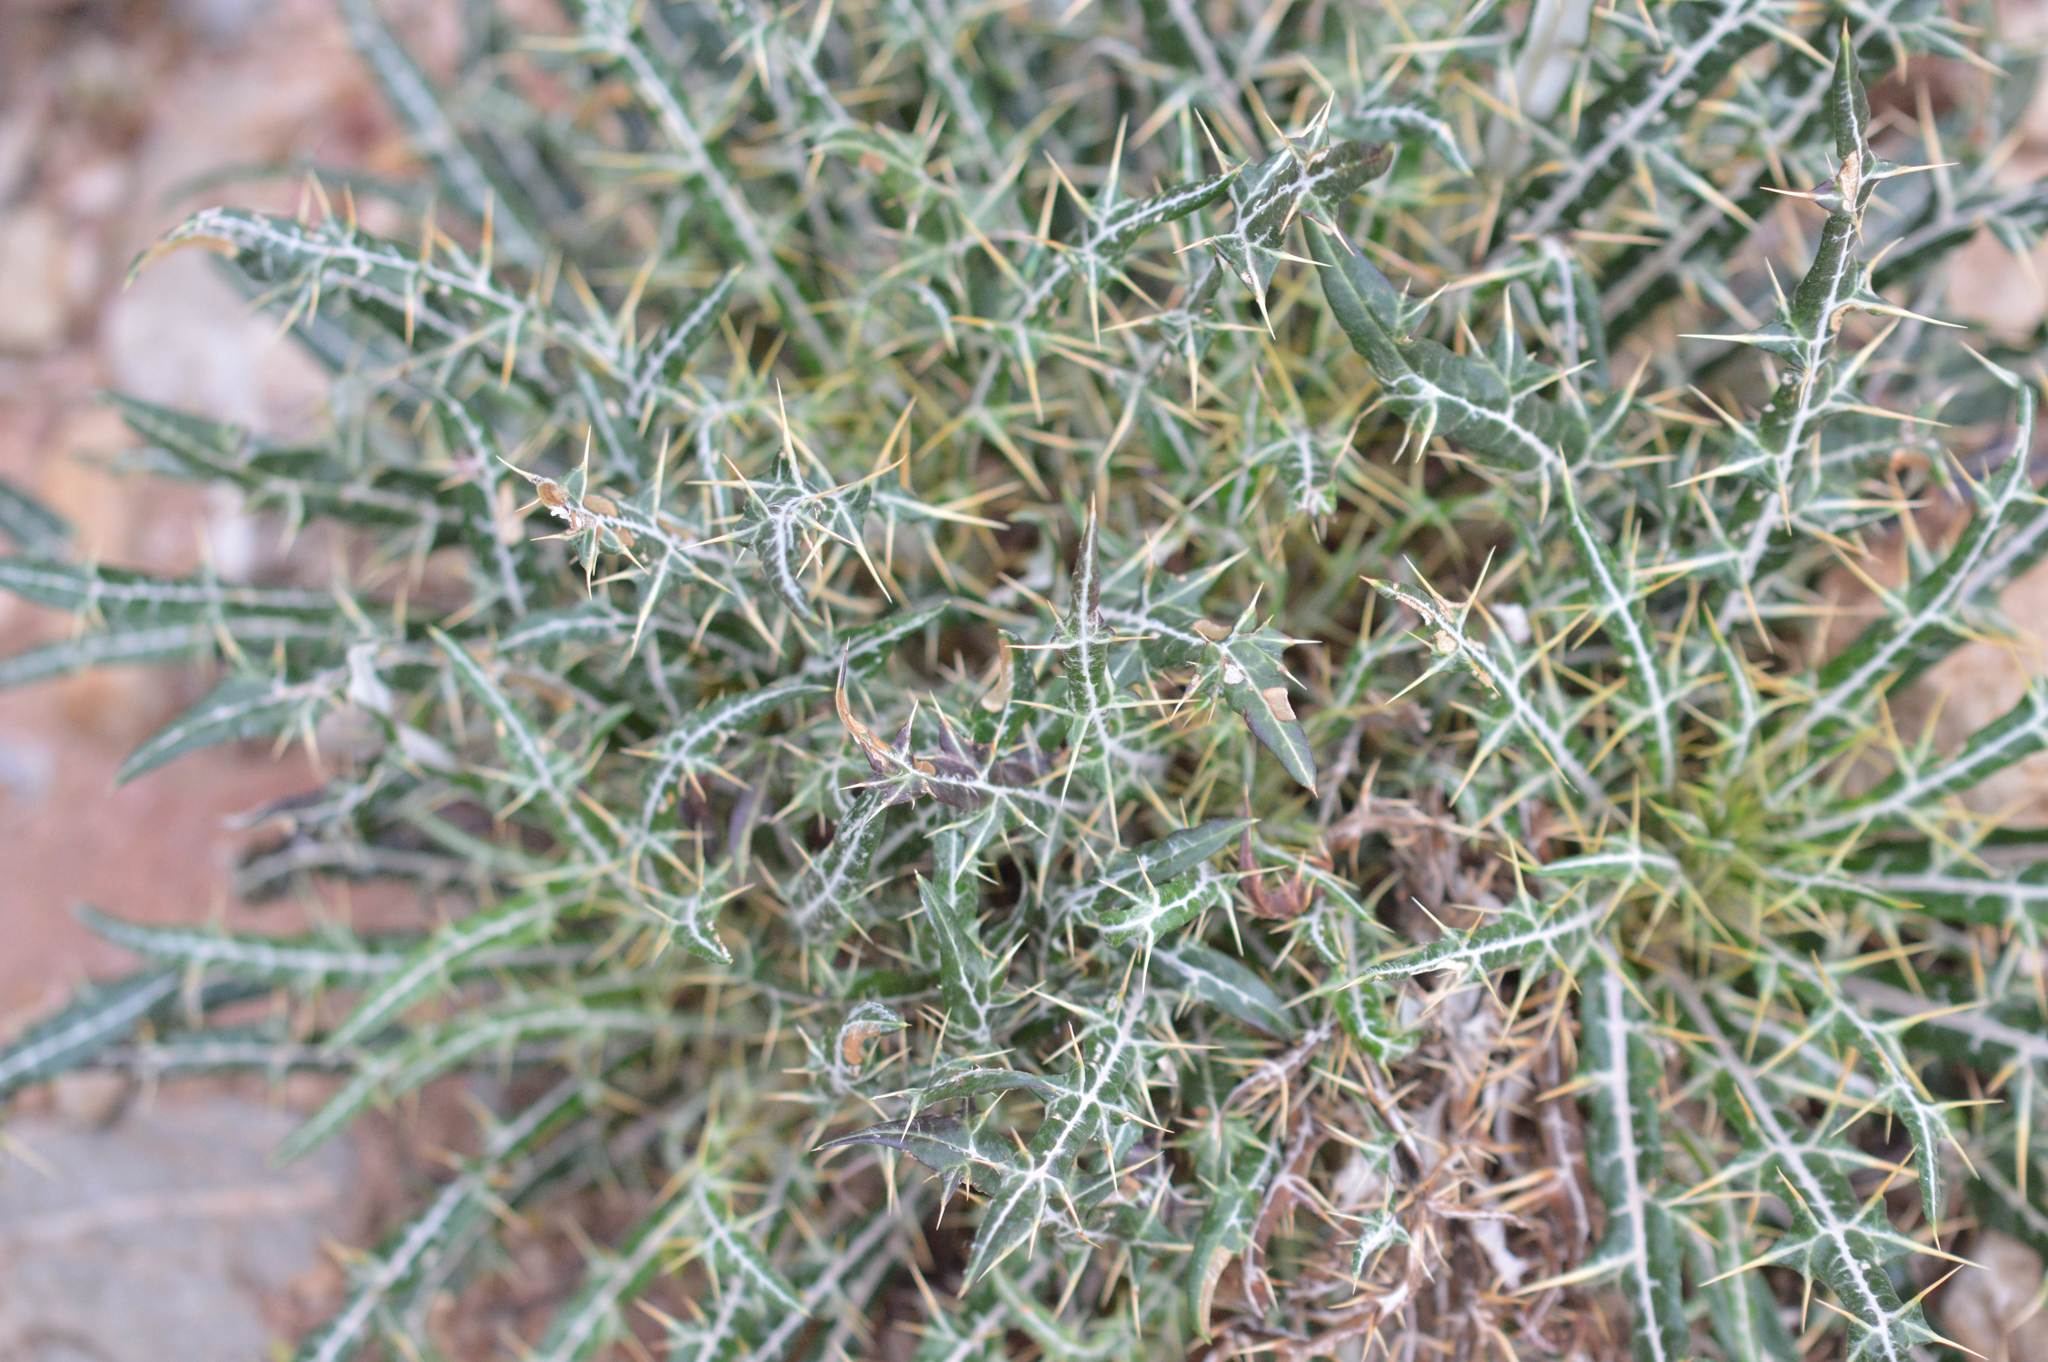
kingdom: Plantae
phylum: Tracheophyta
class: Magnoliopsida
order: Asterales
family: Asteraceae
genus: Galactites
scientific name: Galactites tomentosa
